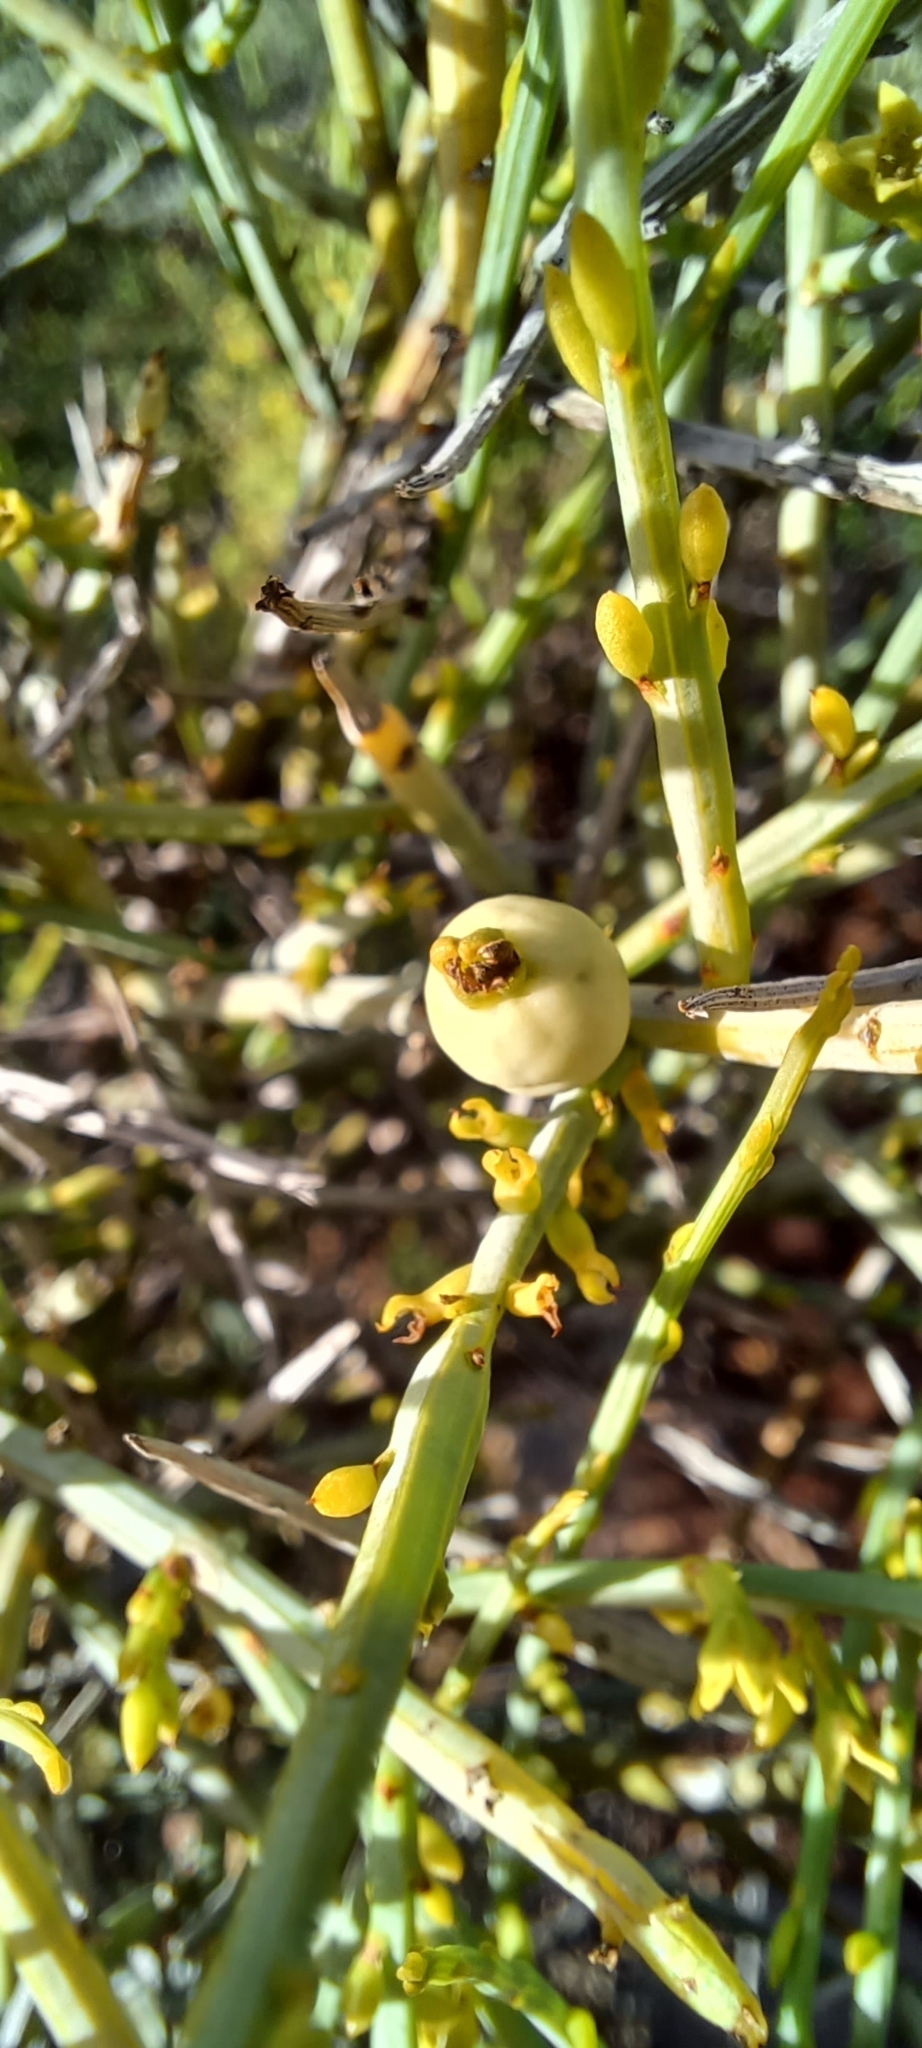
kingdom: Plantae
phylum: Tracheophyta
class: Magnoliopsida
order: Santalales
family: Thesiaceae
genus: Lacomucinaea
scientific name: Lacomucinaea lineata
